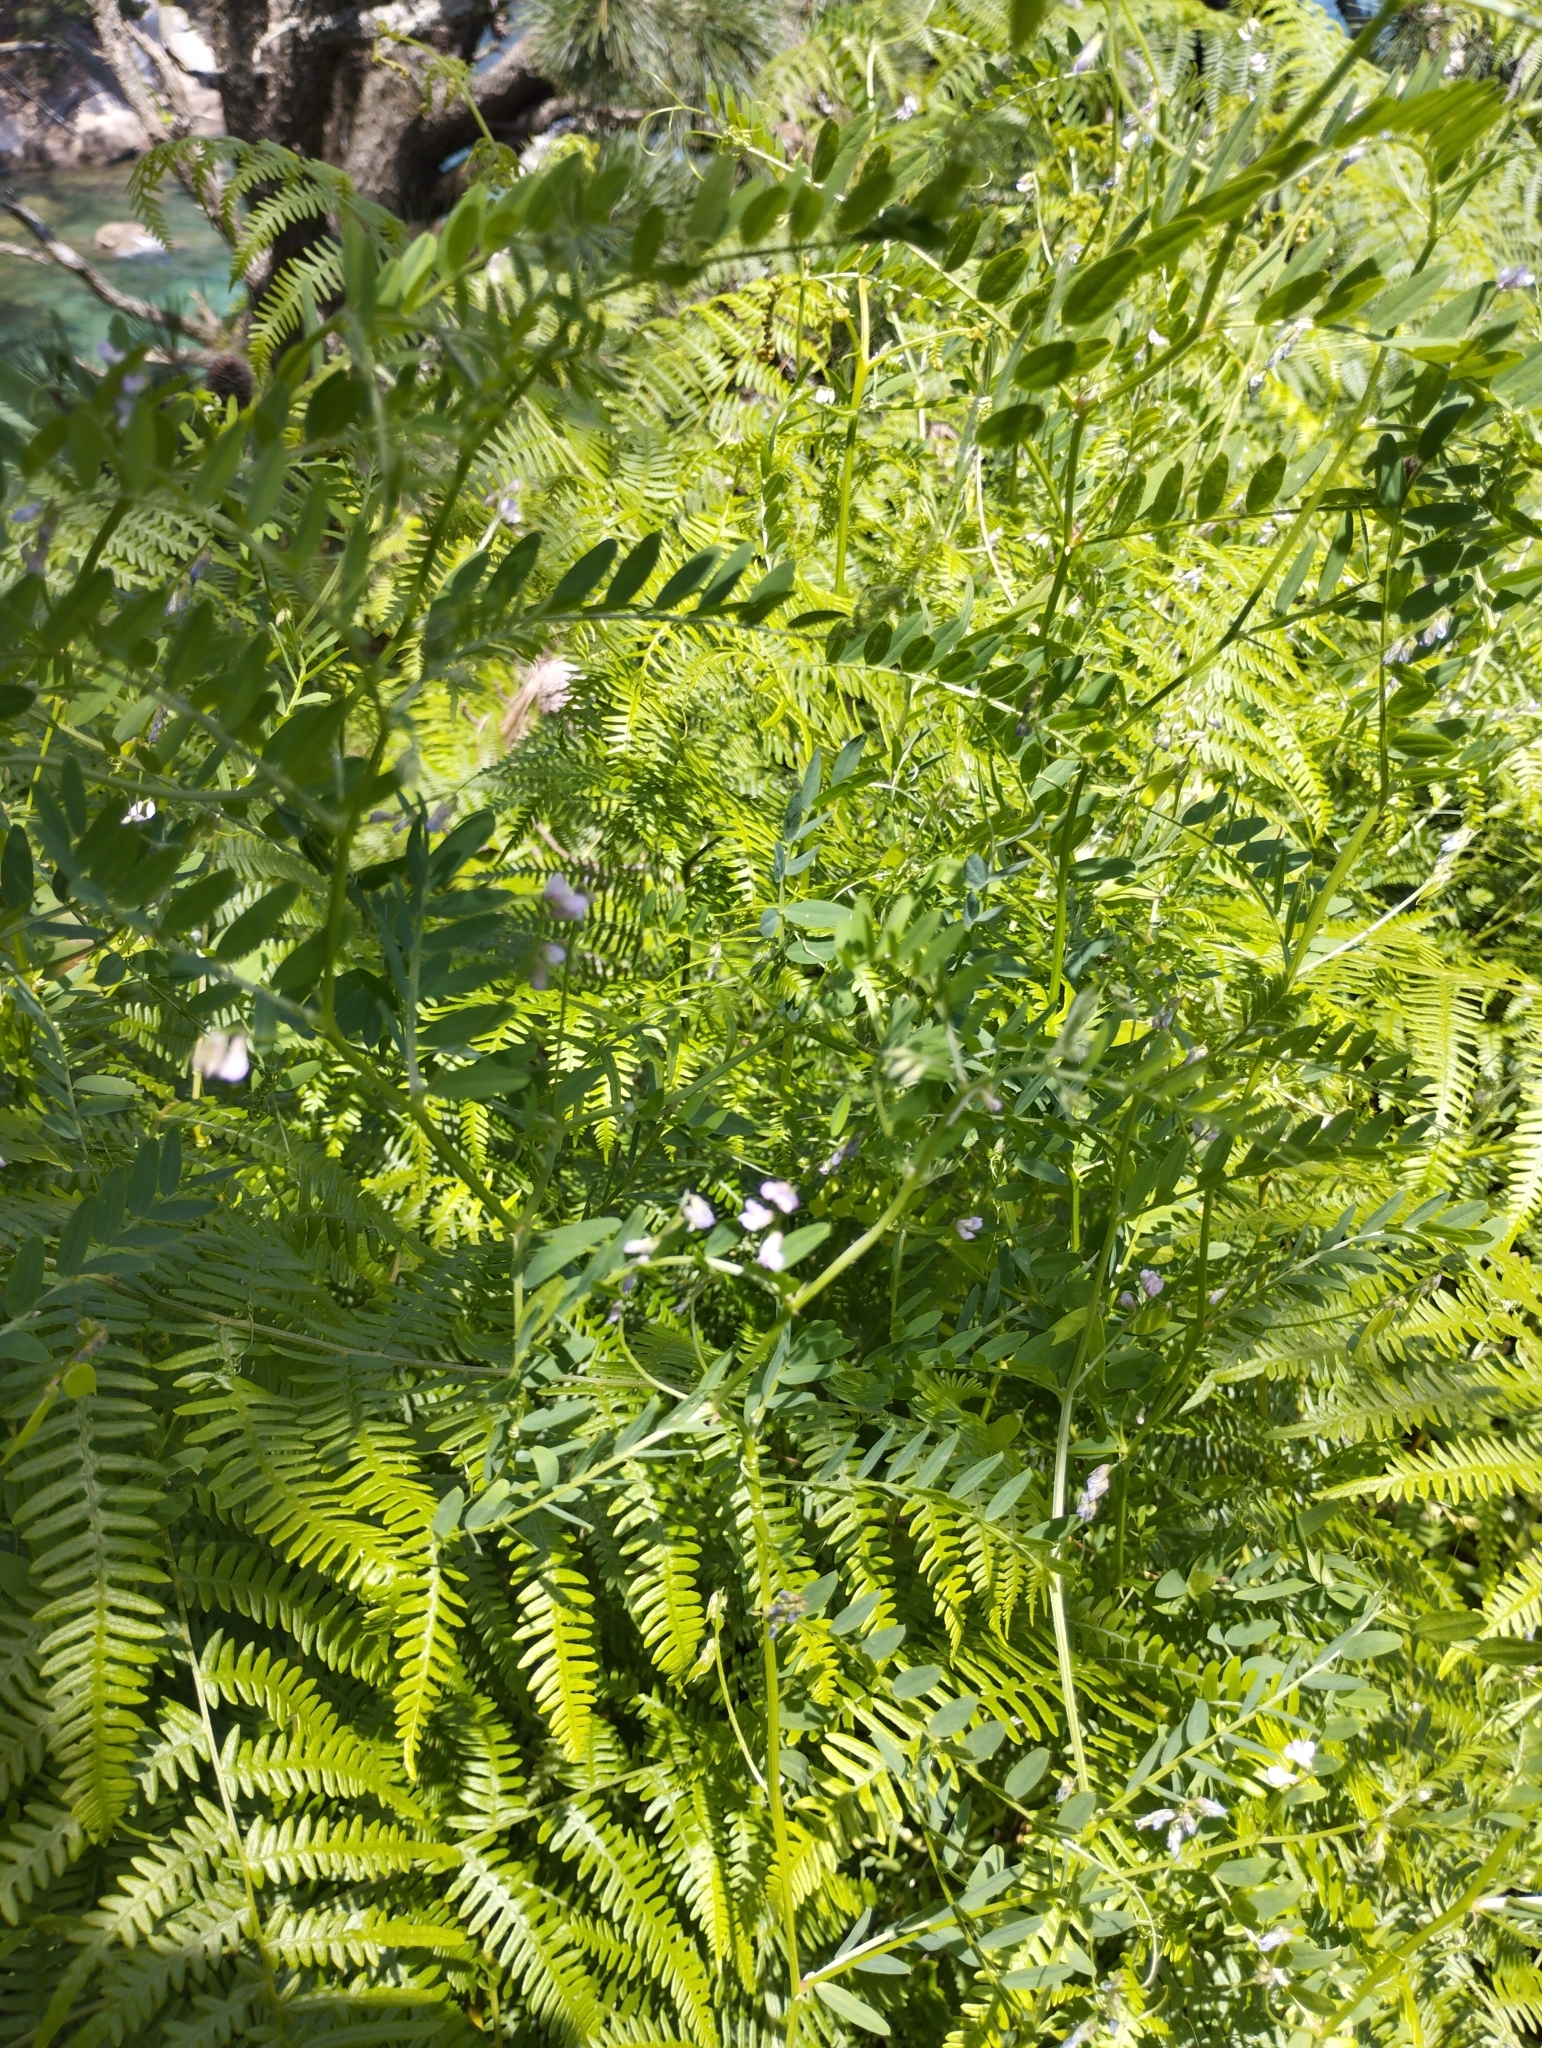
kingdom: Plantae
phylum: Tracheophyta
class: Magnoliopsida
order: Fabales
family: Fabaceae
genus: Vicia
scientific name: Vicia hirsuta
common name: Tiny vetch
